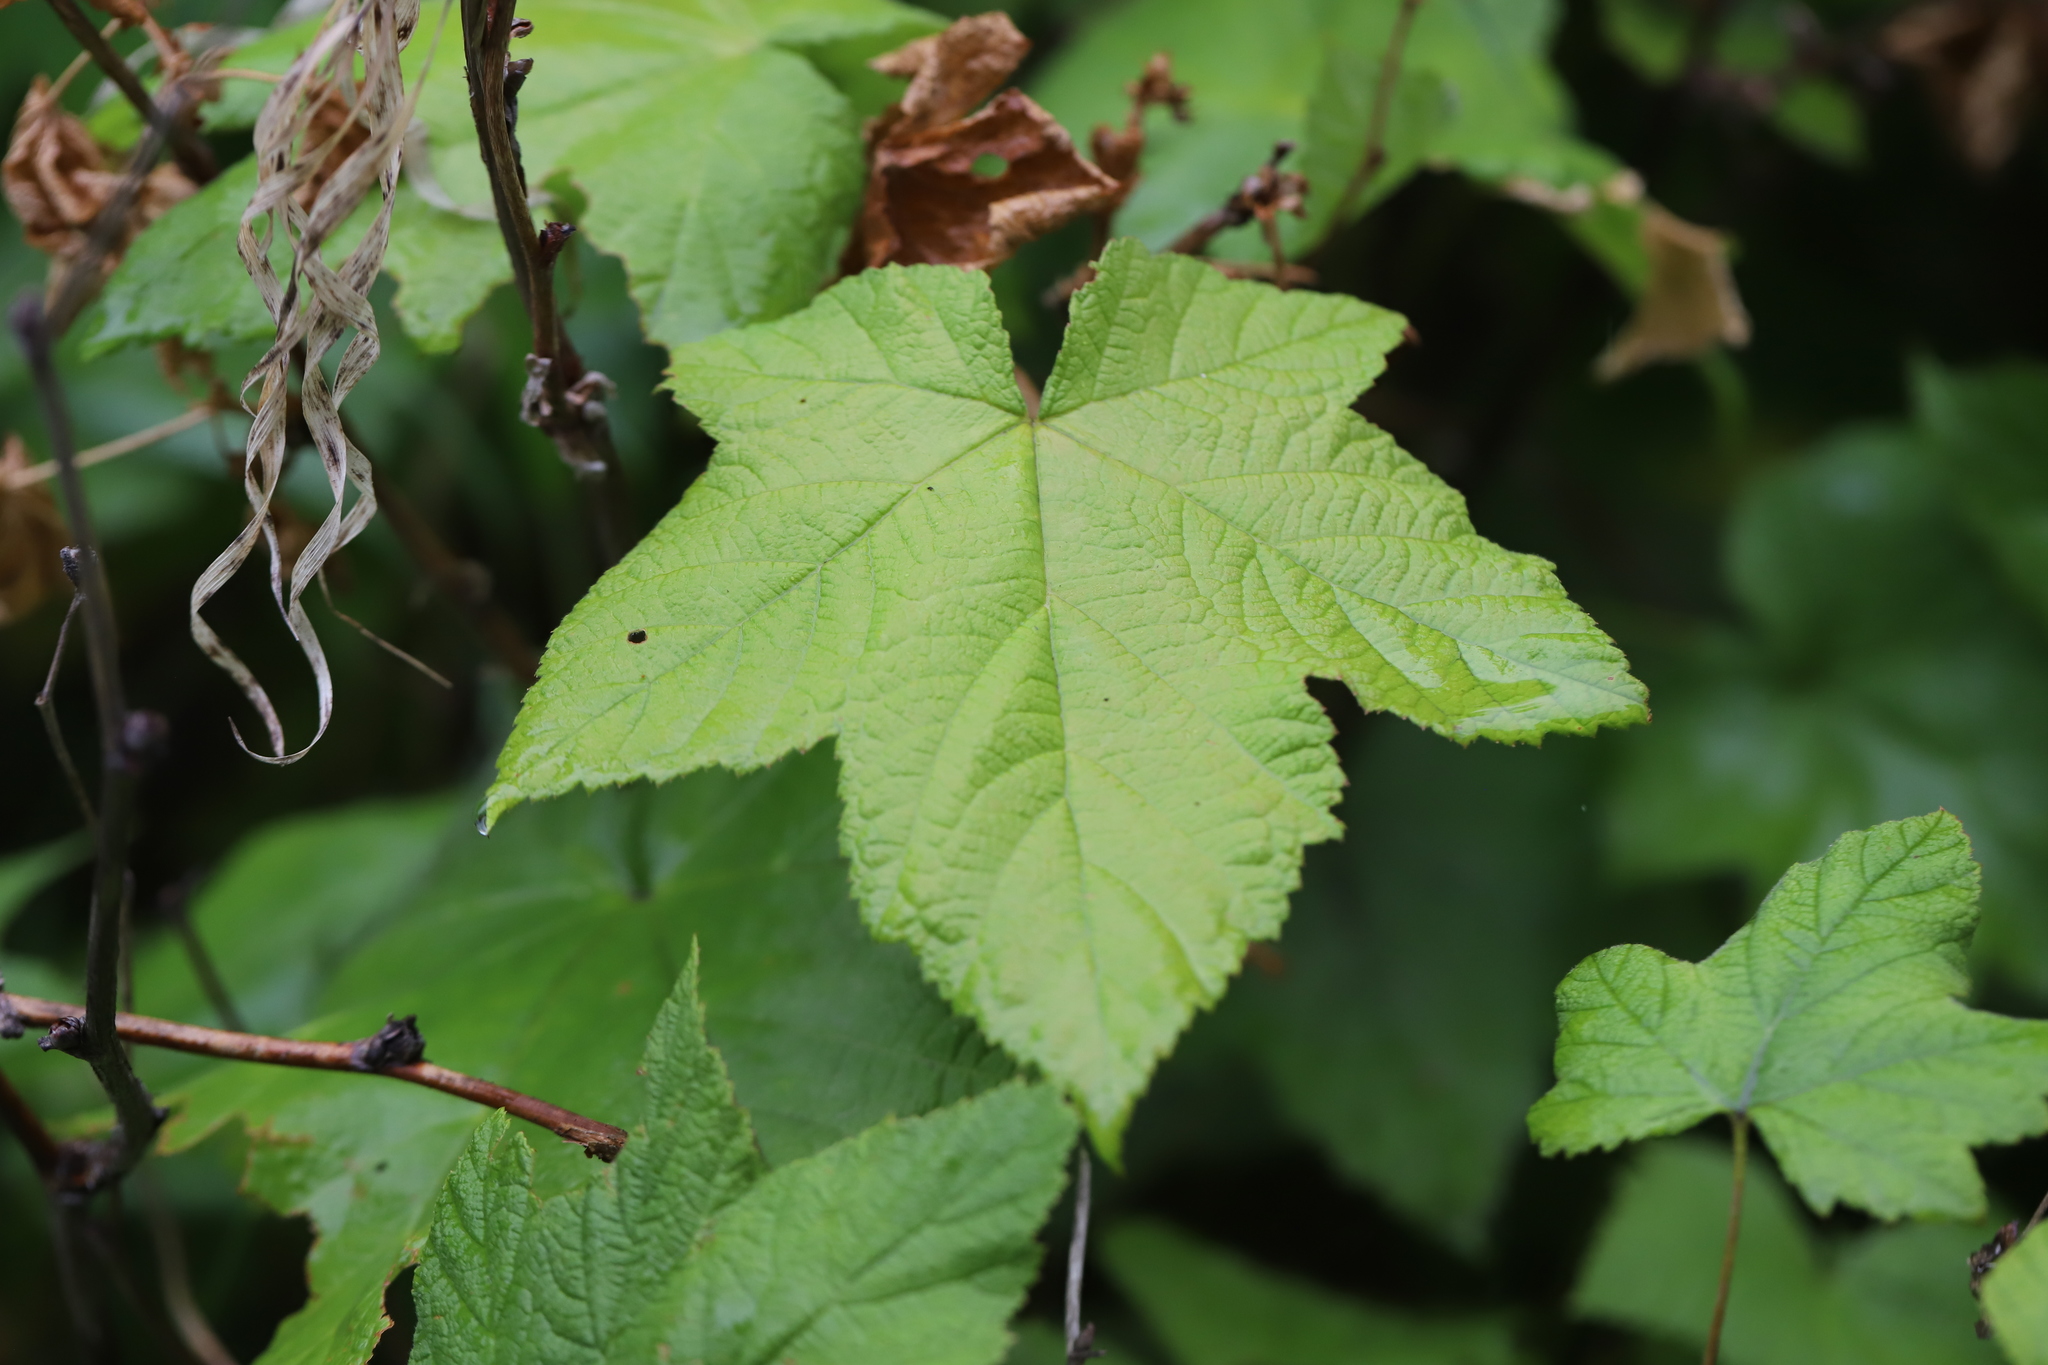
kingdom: Plantae
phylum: Tracheophyta
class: Magnoliopsida
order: Rosales
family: Rosaceae
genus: Rubus
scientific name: Rubus parviflorus
